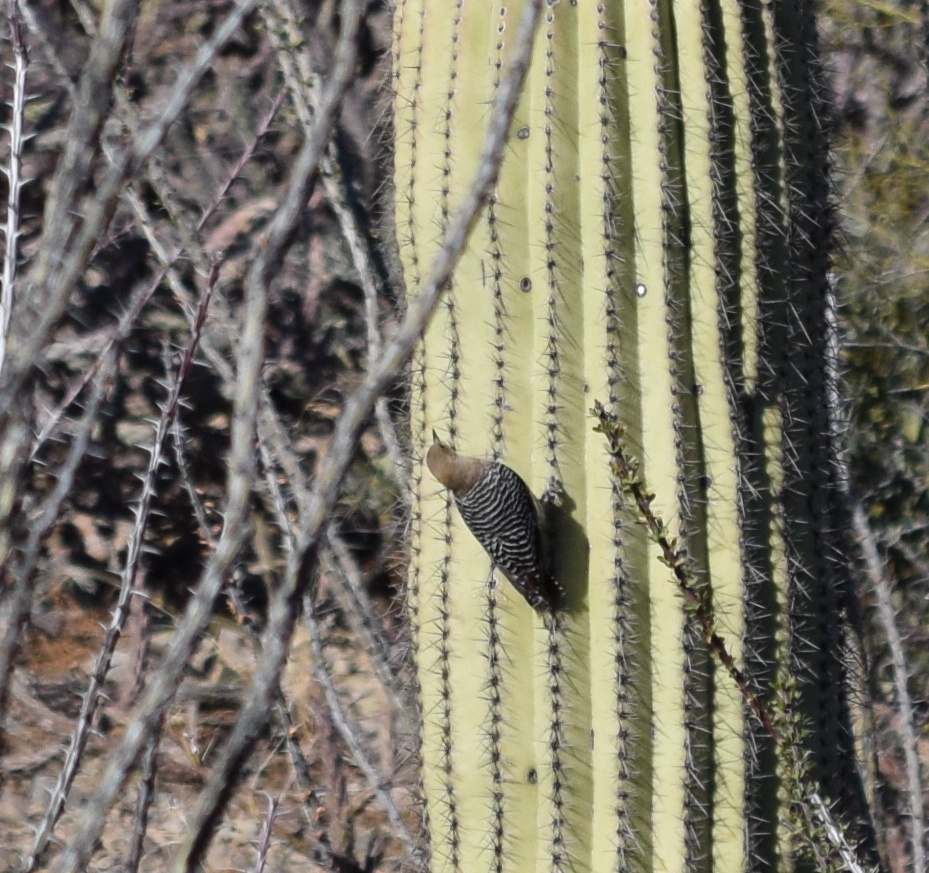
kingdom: Animalia
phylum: Chordata
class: Aves
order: Piciformes
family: Picidae
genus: Melanerpes
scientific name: Melanerpes uropygialis
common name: Gila woodpecker
